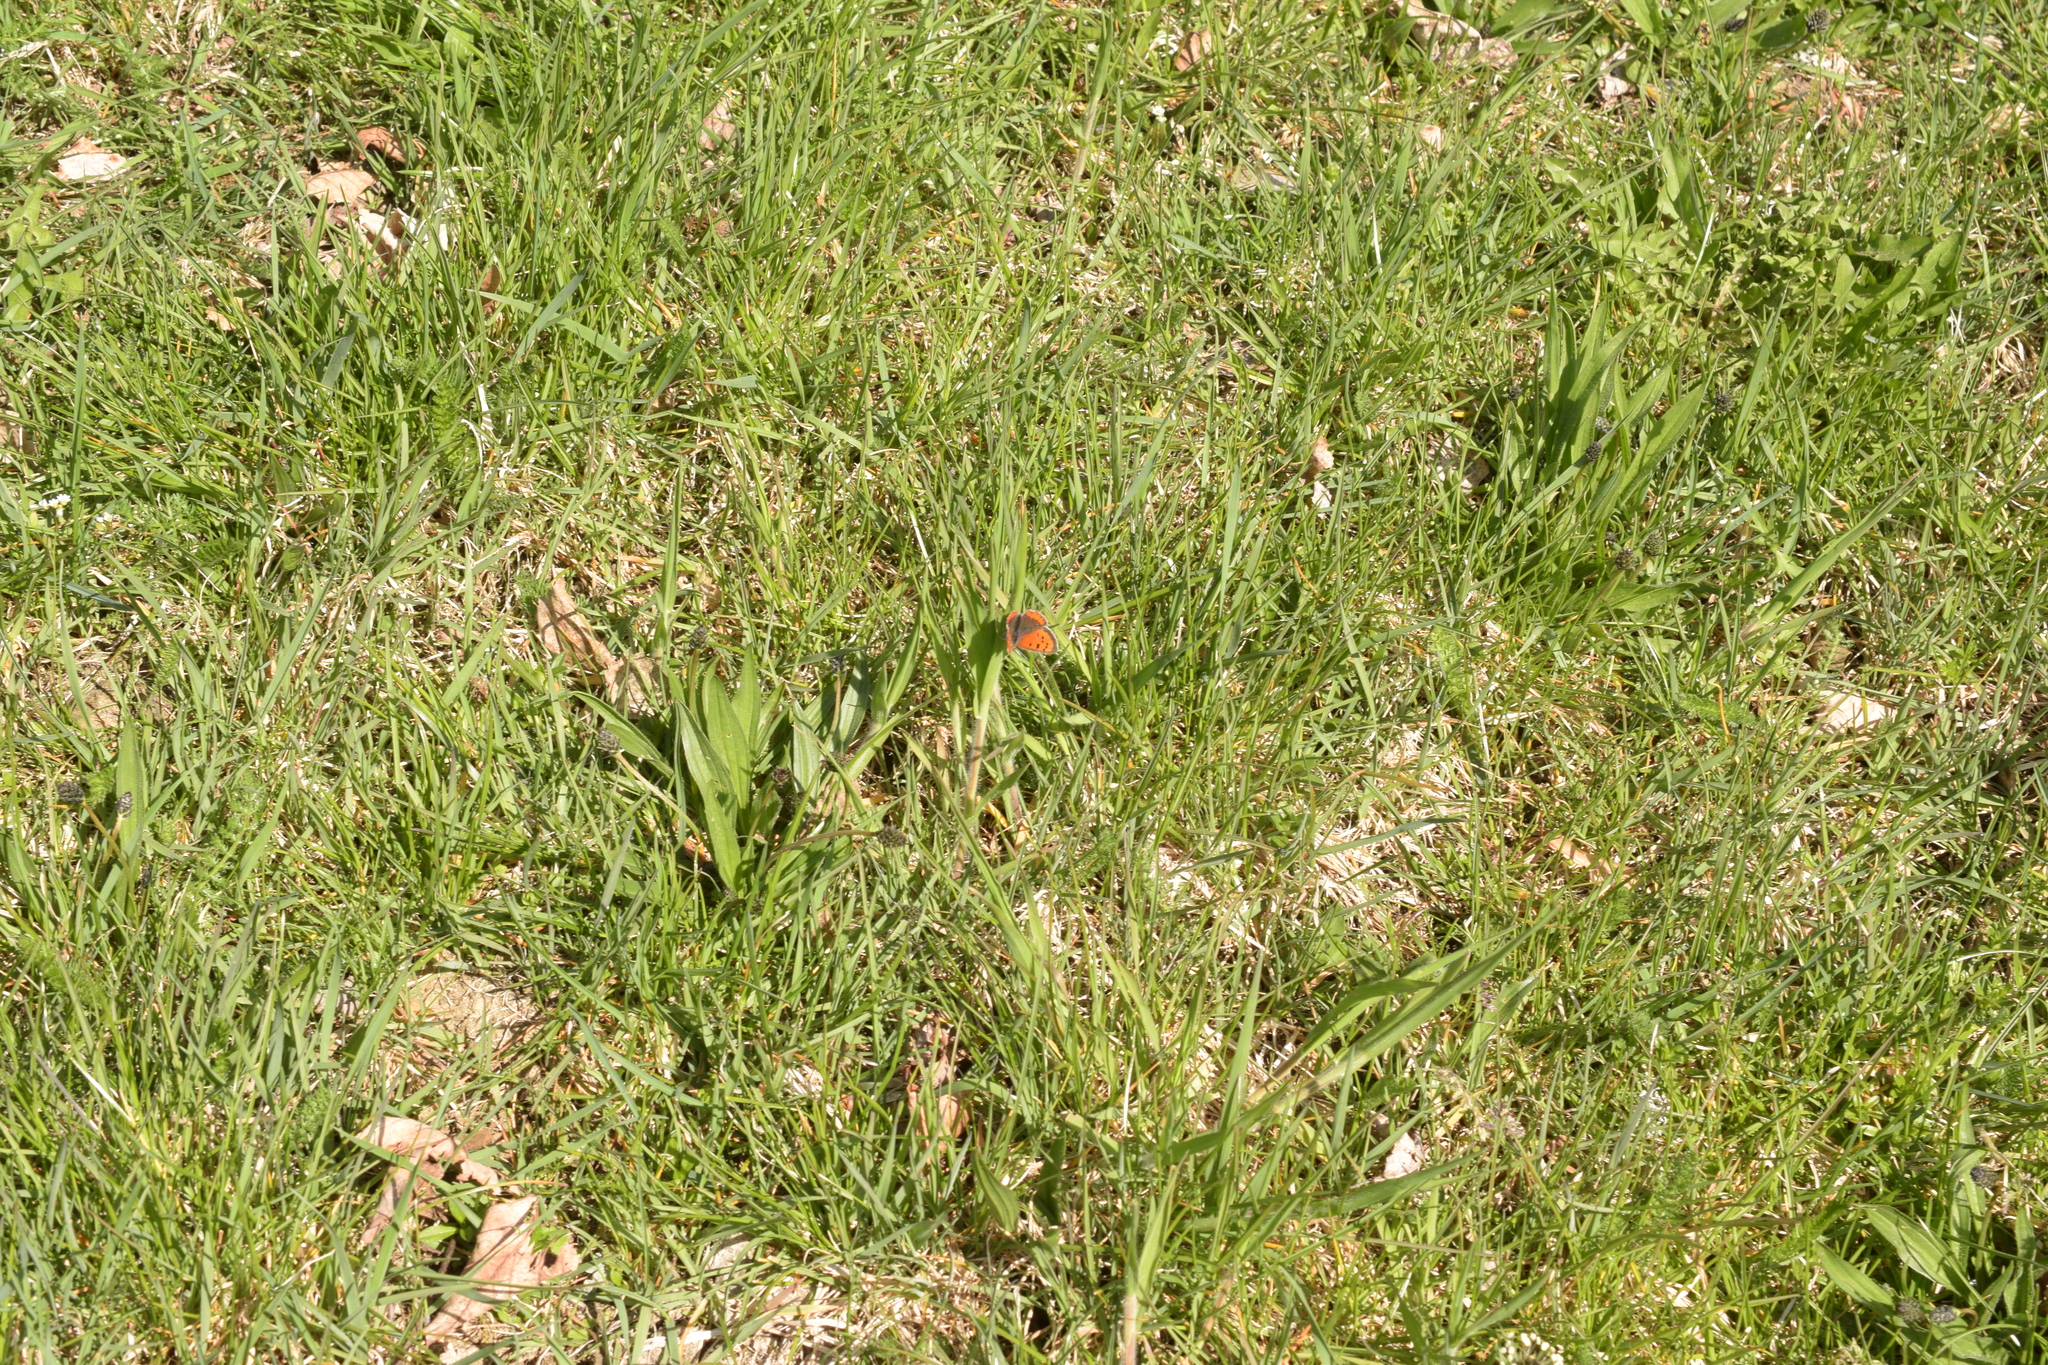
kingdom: Animalia
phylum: Arthropoda
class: Insecta
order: Lepidoptera
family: Lycaenidae
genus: Lycaena
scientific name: Lycaena phlaeas
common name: Small copper
